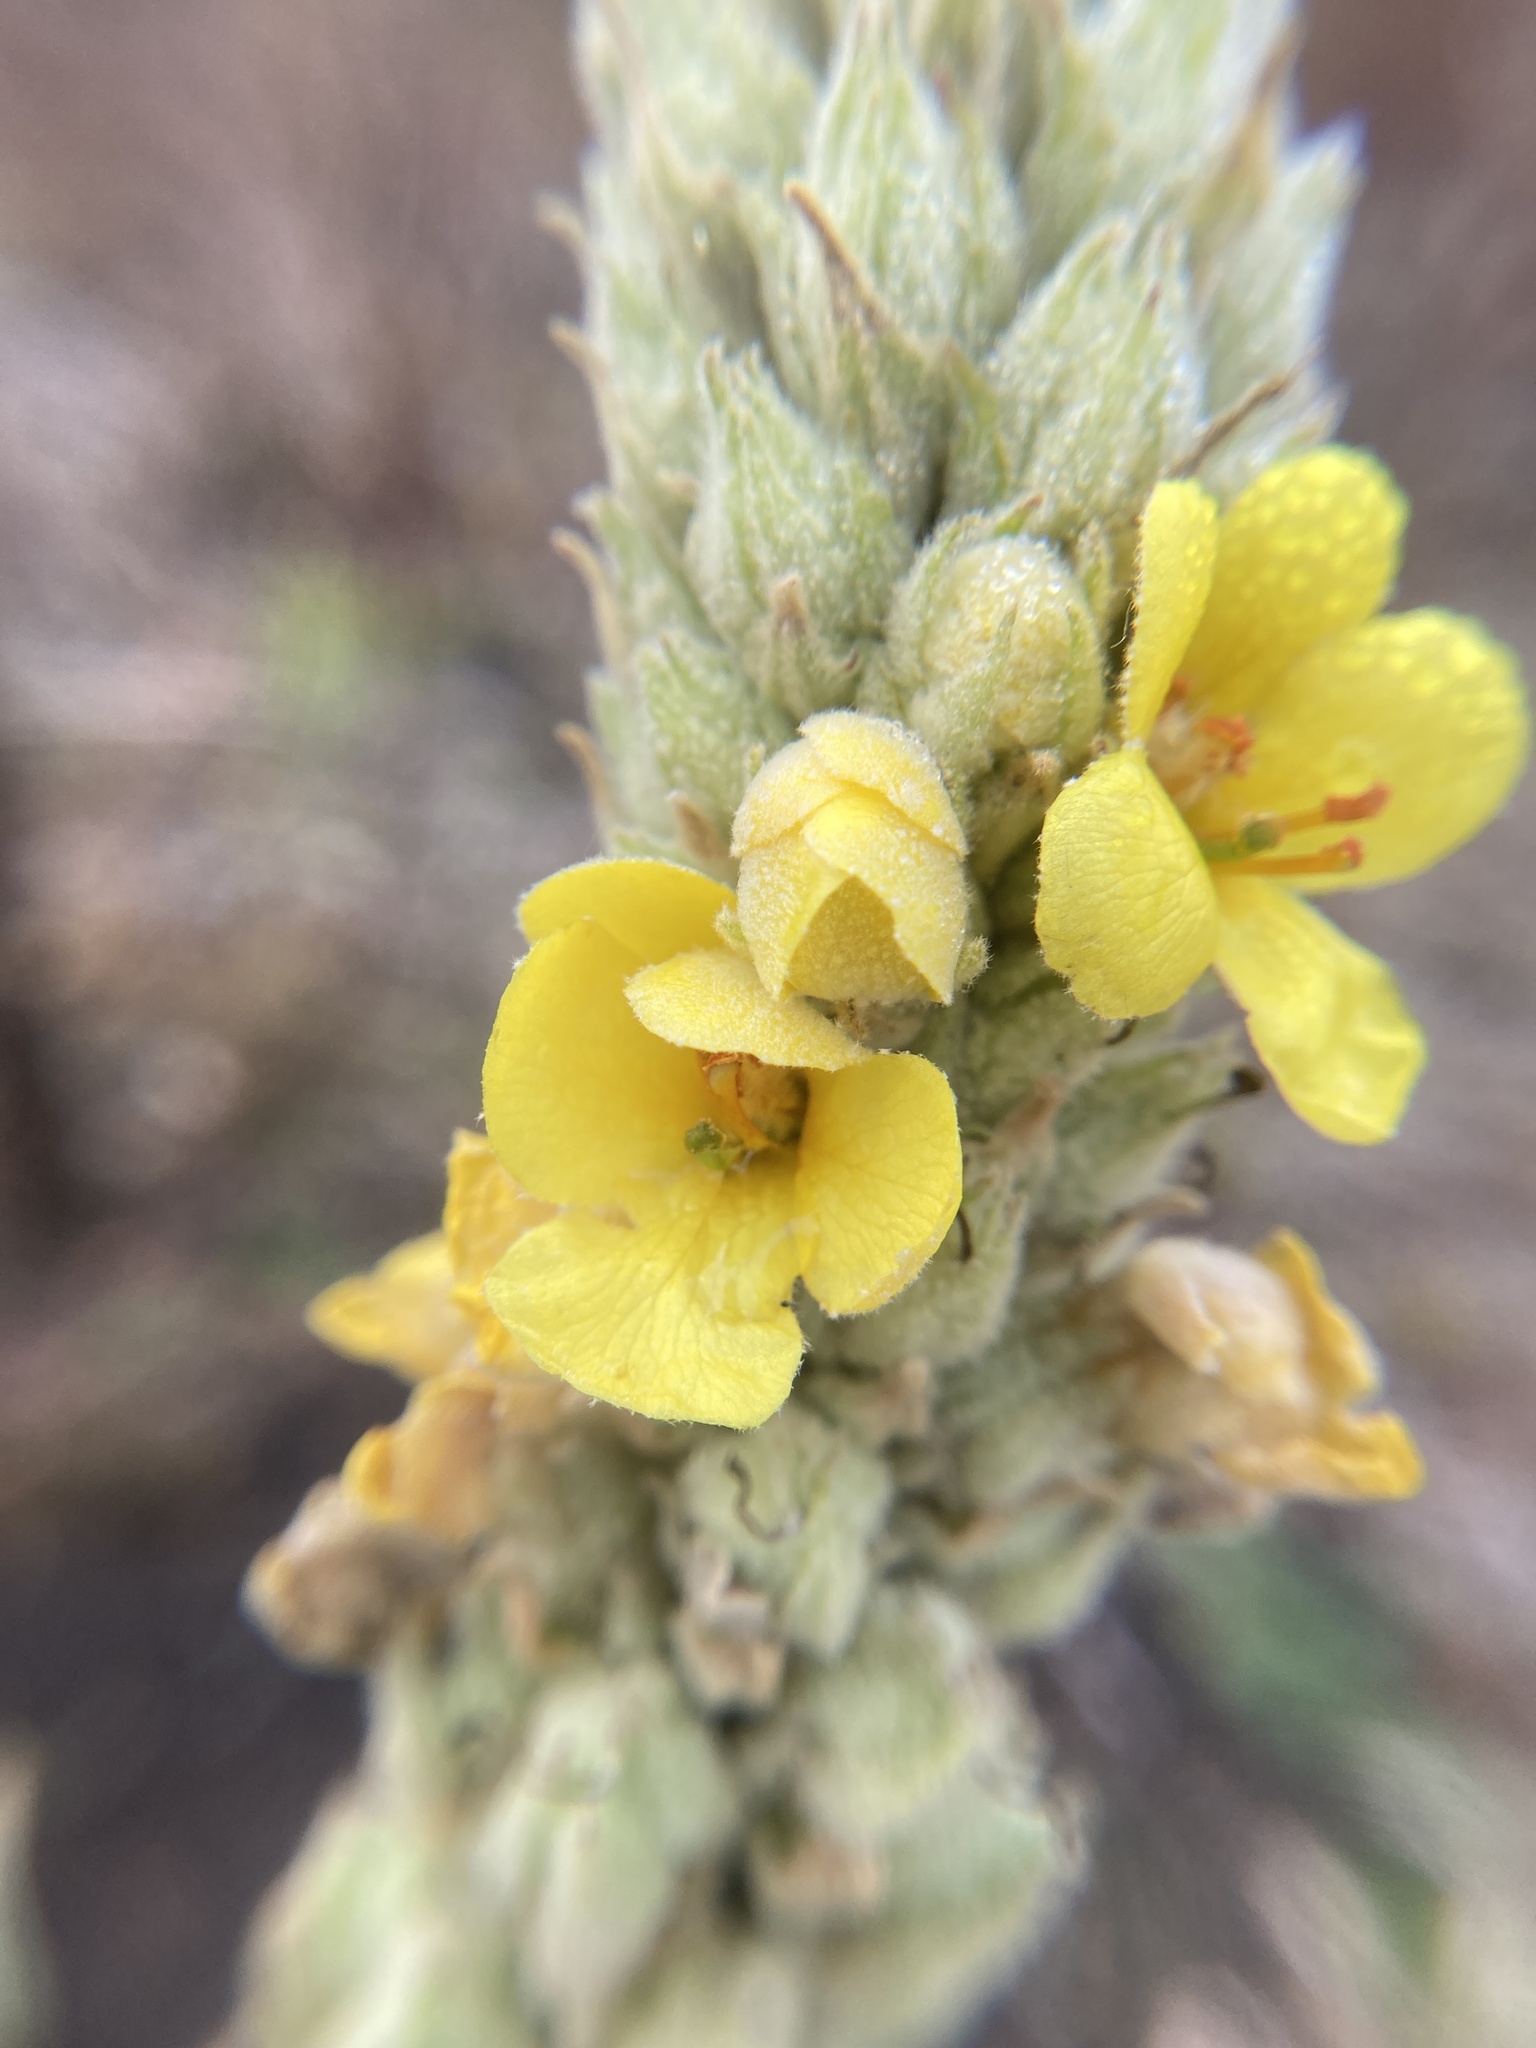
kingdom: Plantae
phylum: Tracheophyta
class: Magnoliopsida
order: Lamiales
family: Scrophulariaceae
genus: Verbascum
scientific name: Verbascum thapsus
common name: Common mullein
